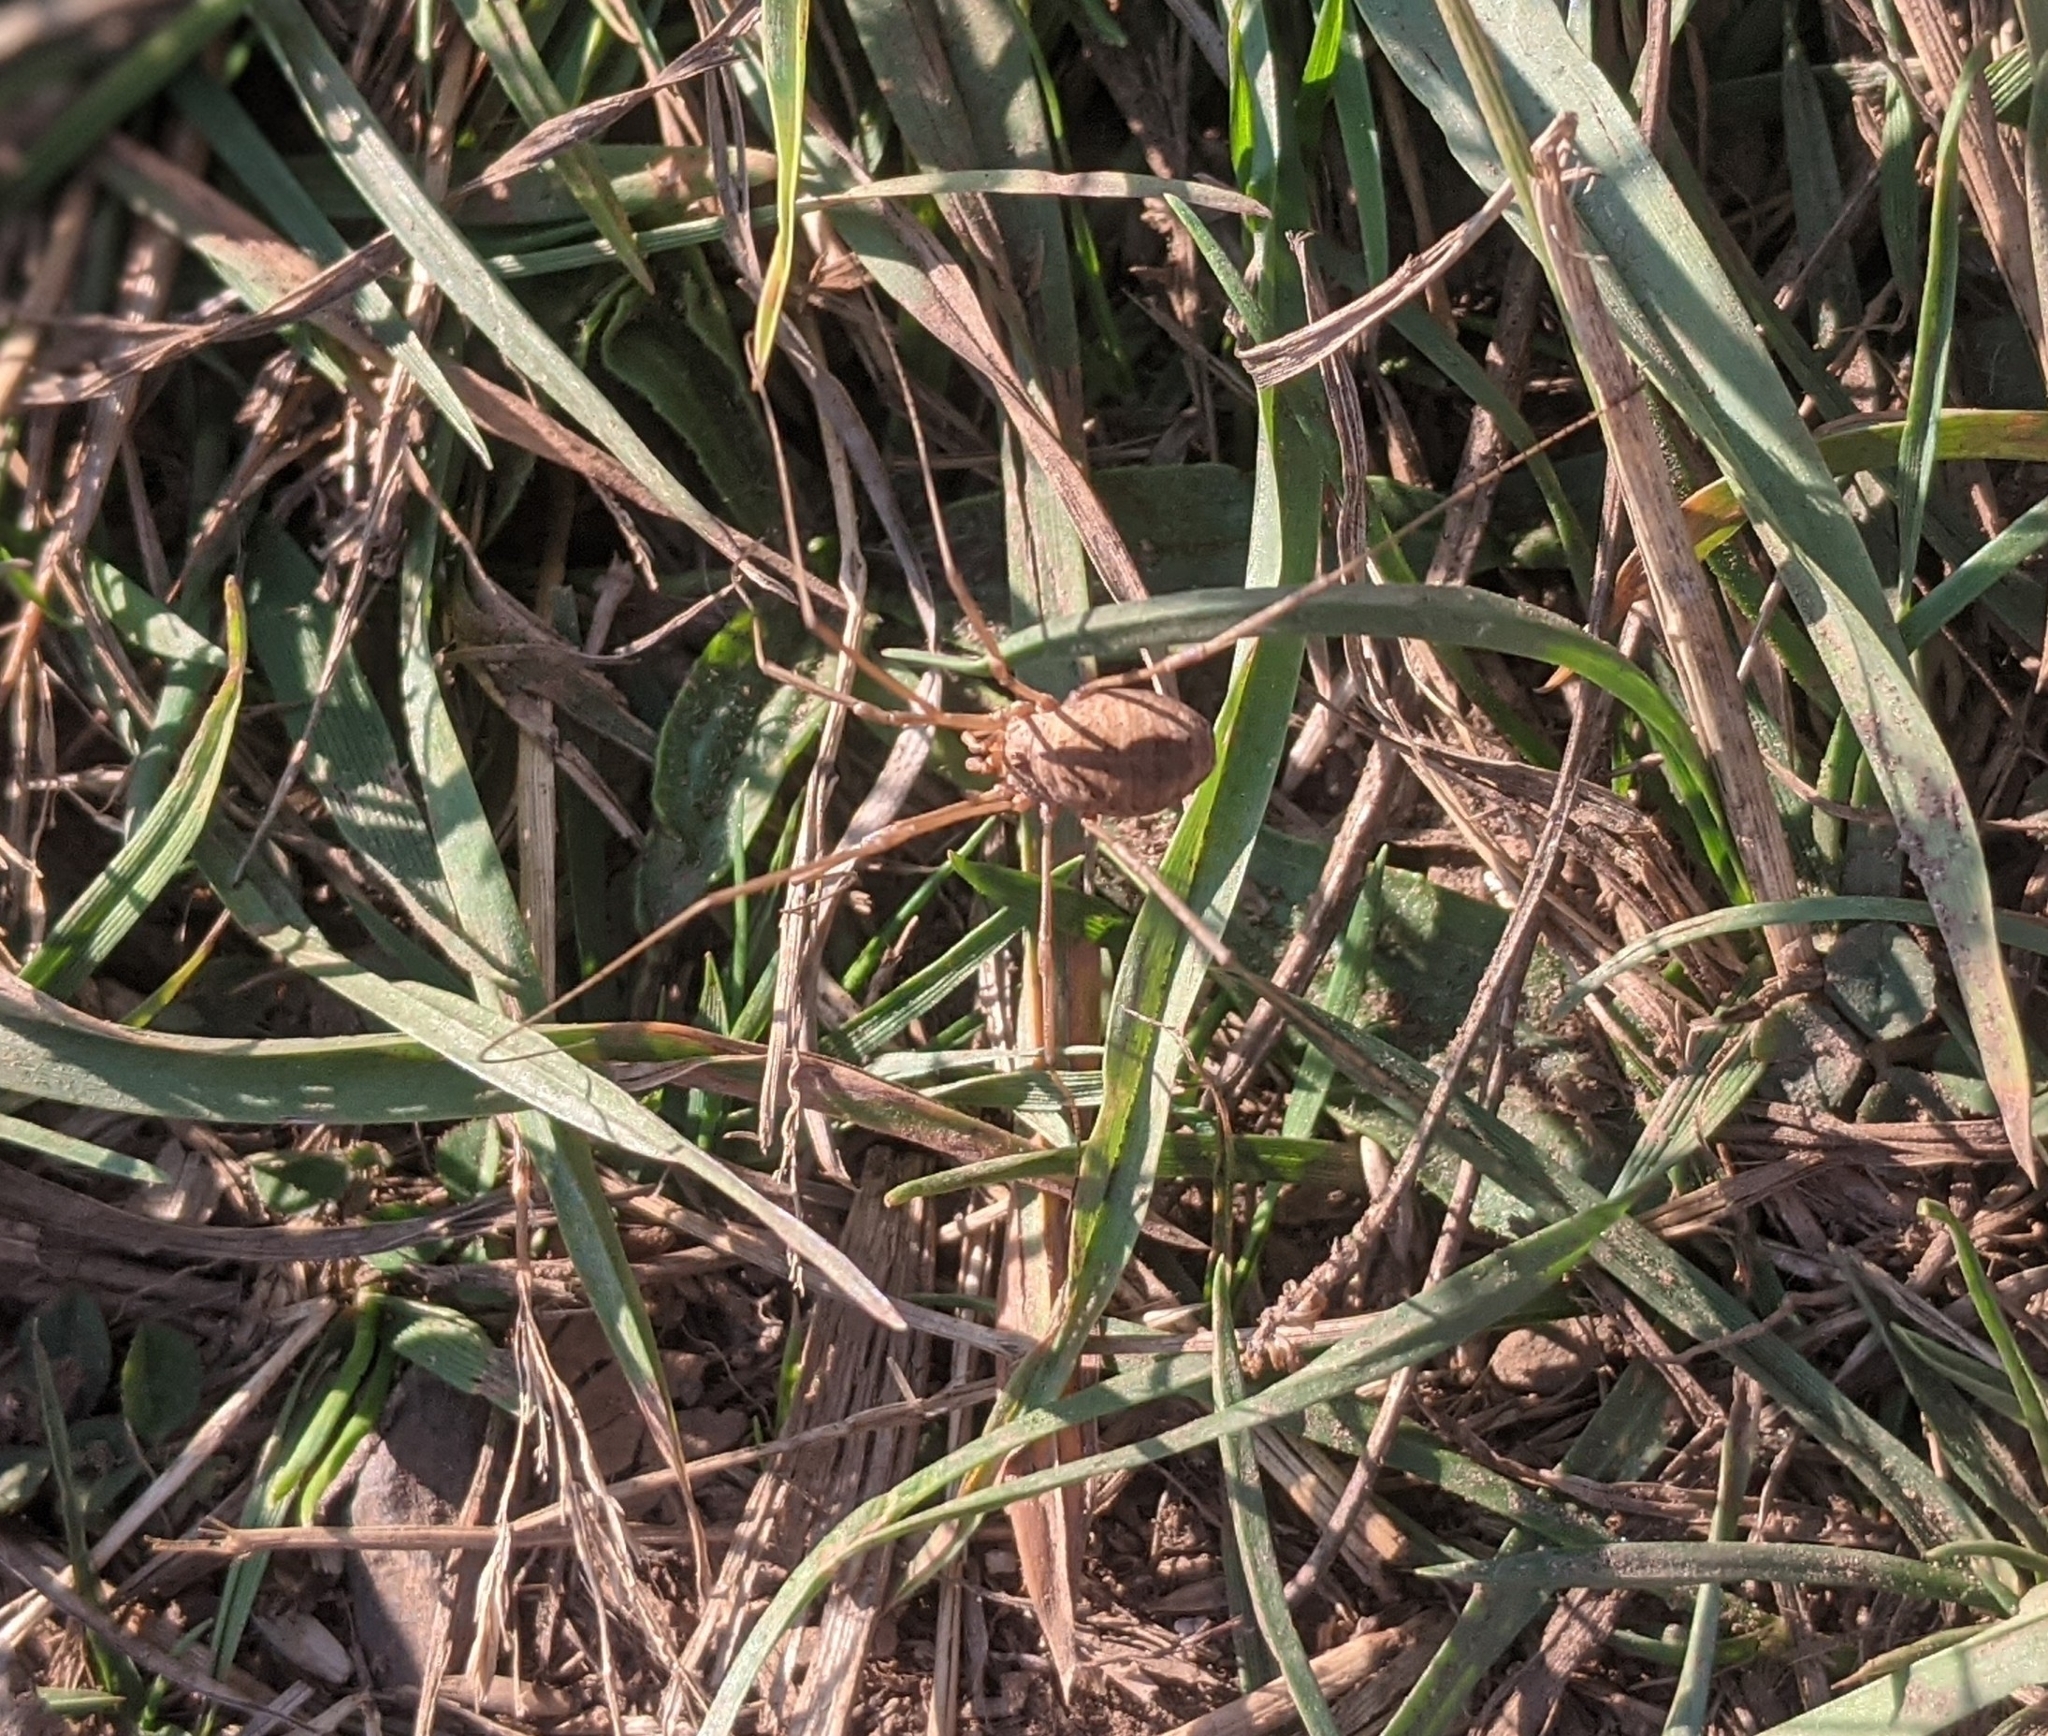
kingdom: Animalia
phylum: Arthropoda
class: Arachnida
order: Opiliones
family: Phalangiidae
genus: Phalangium
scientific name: Phalangium opilio
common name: Daddy longleg
